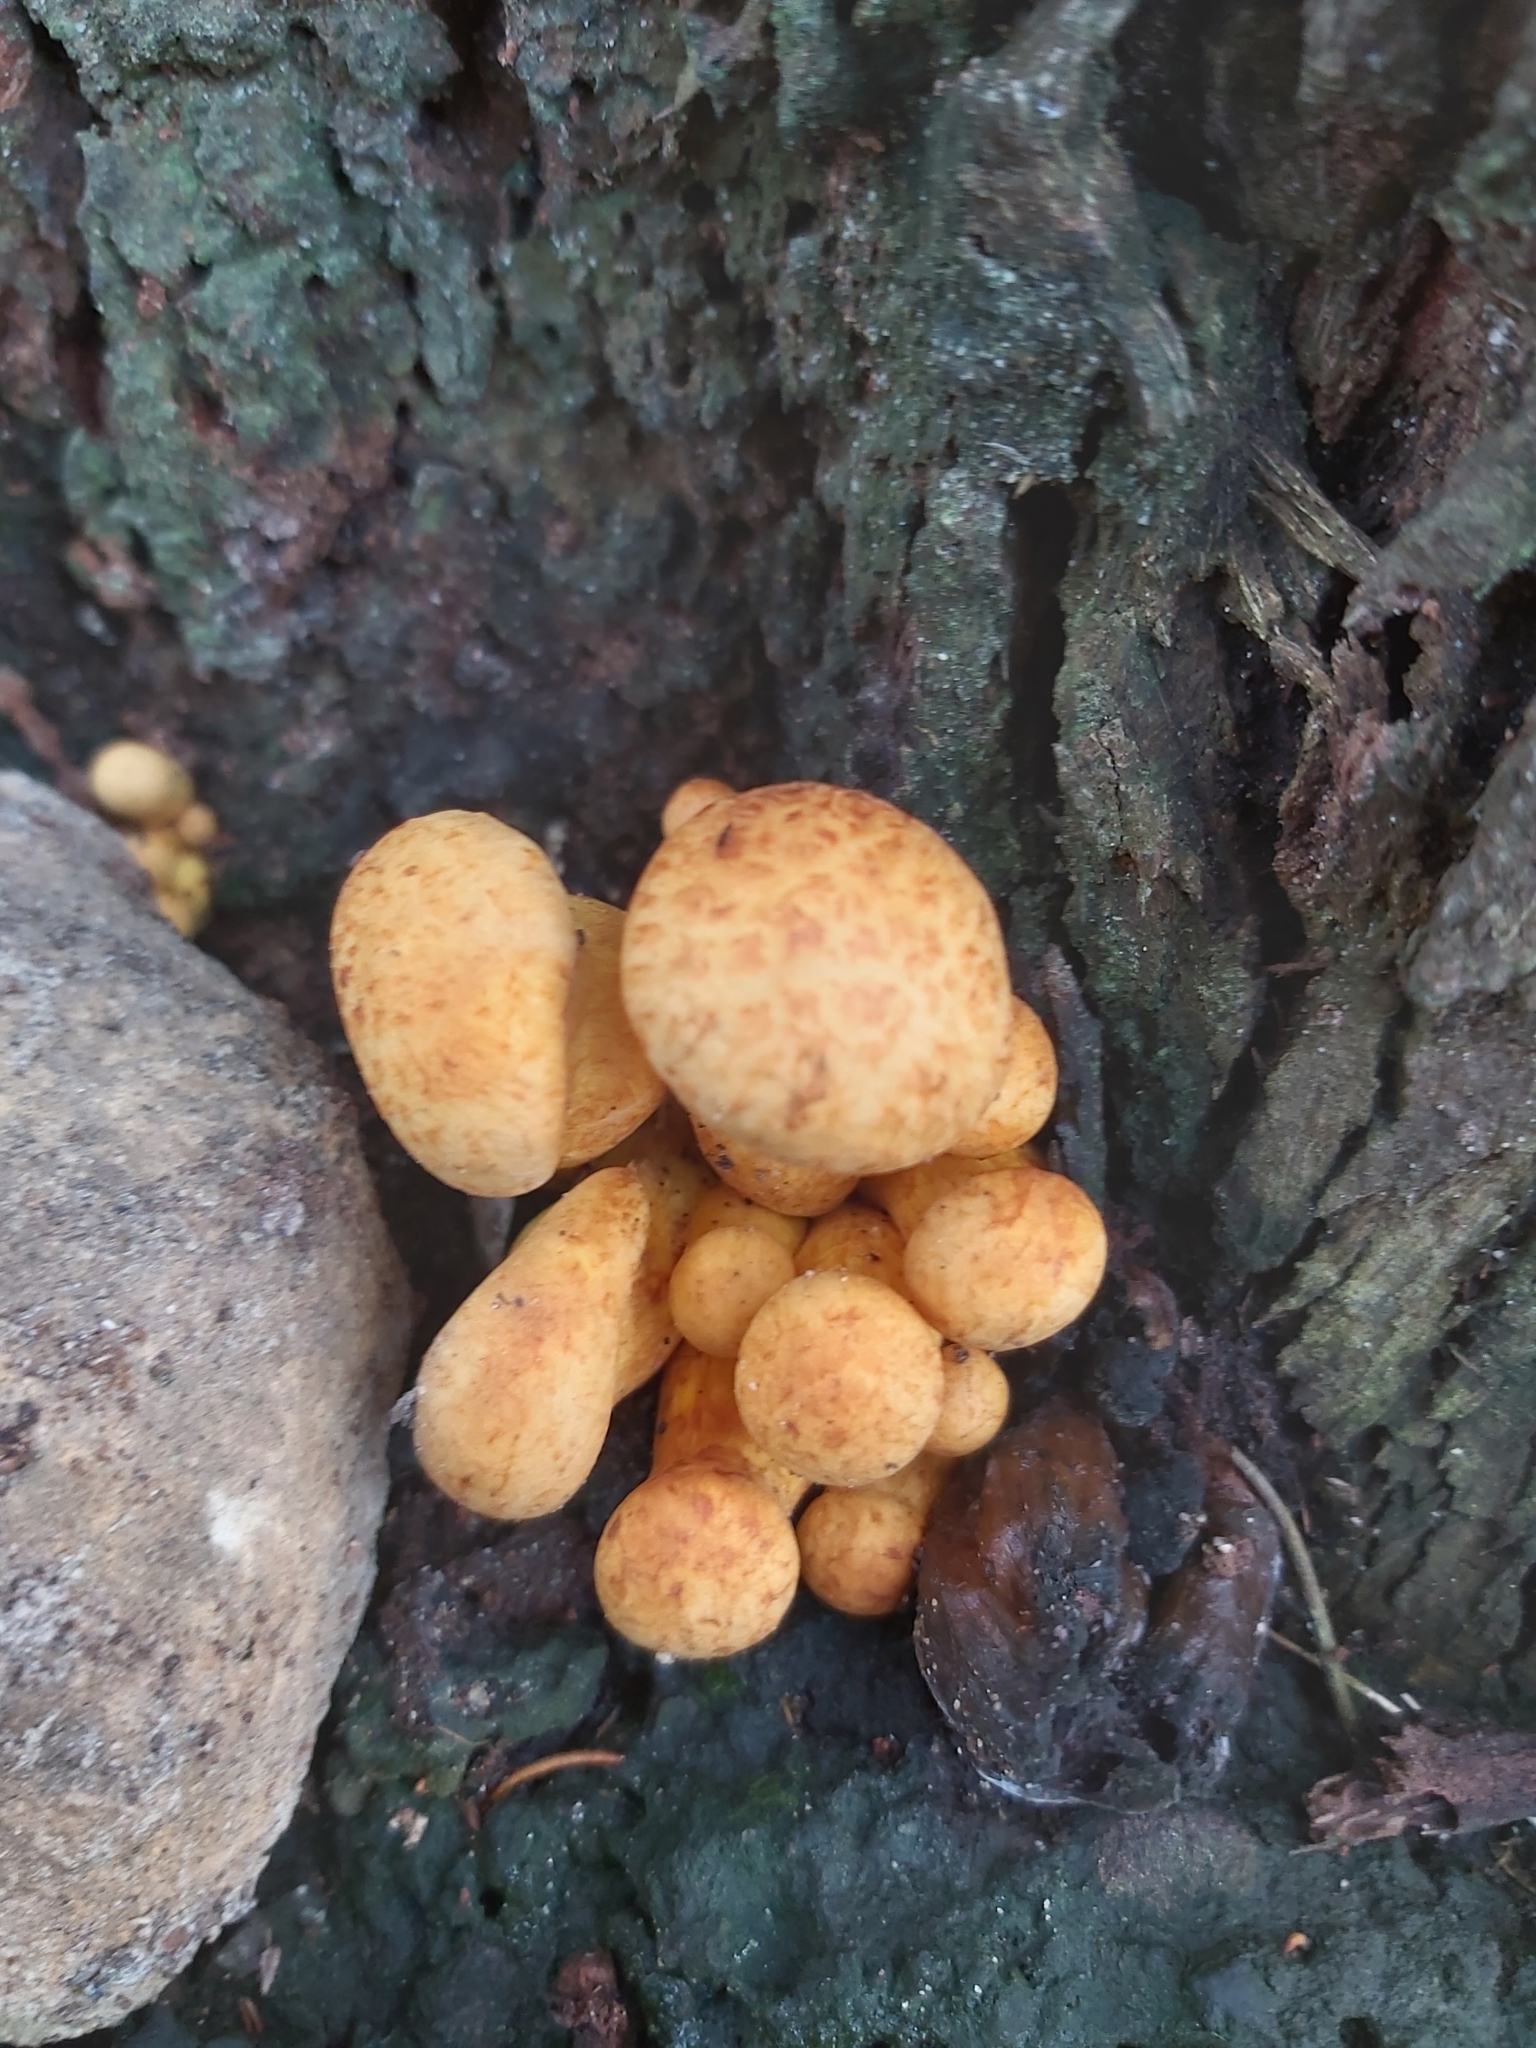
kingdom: Fungi
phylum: Basidiomycota
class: Agaricomycetes
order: Agaricales
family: Hymenogastraceae
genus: Gymnopilus
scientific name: Gymnopilus junonius
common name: Spectacular rustgill
